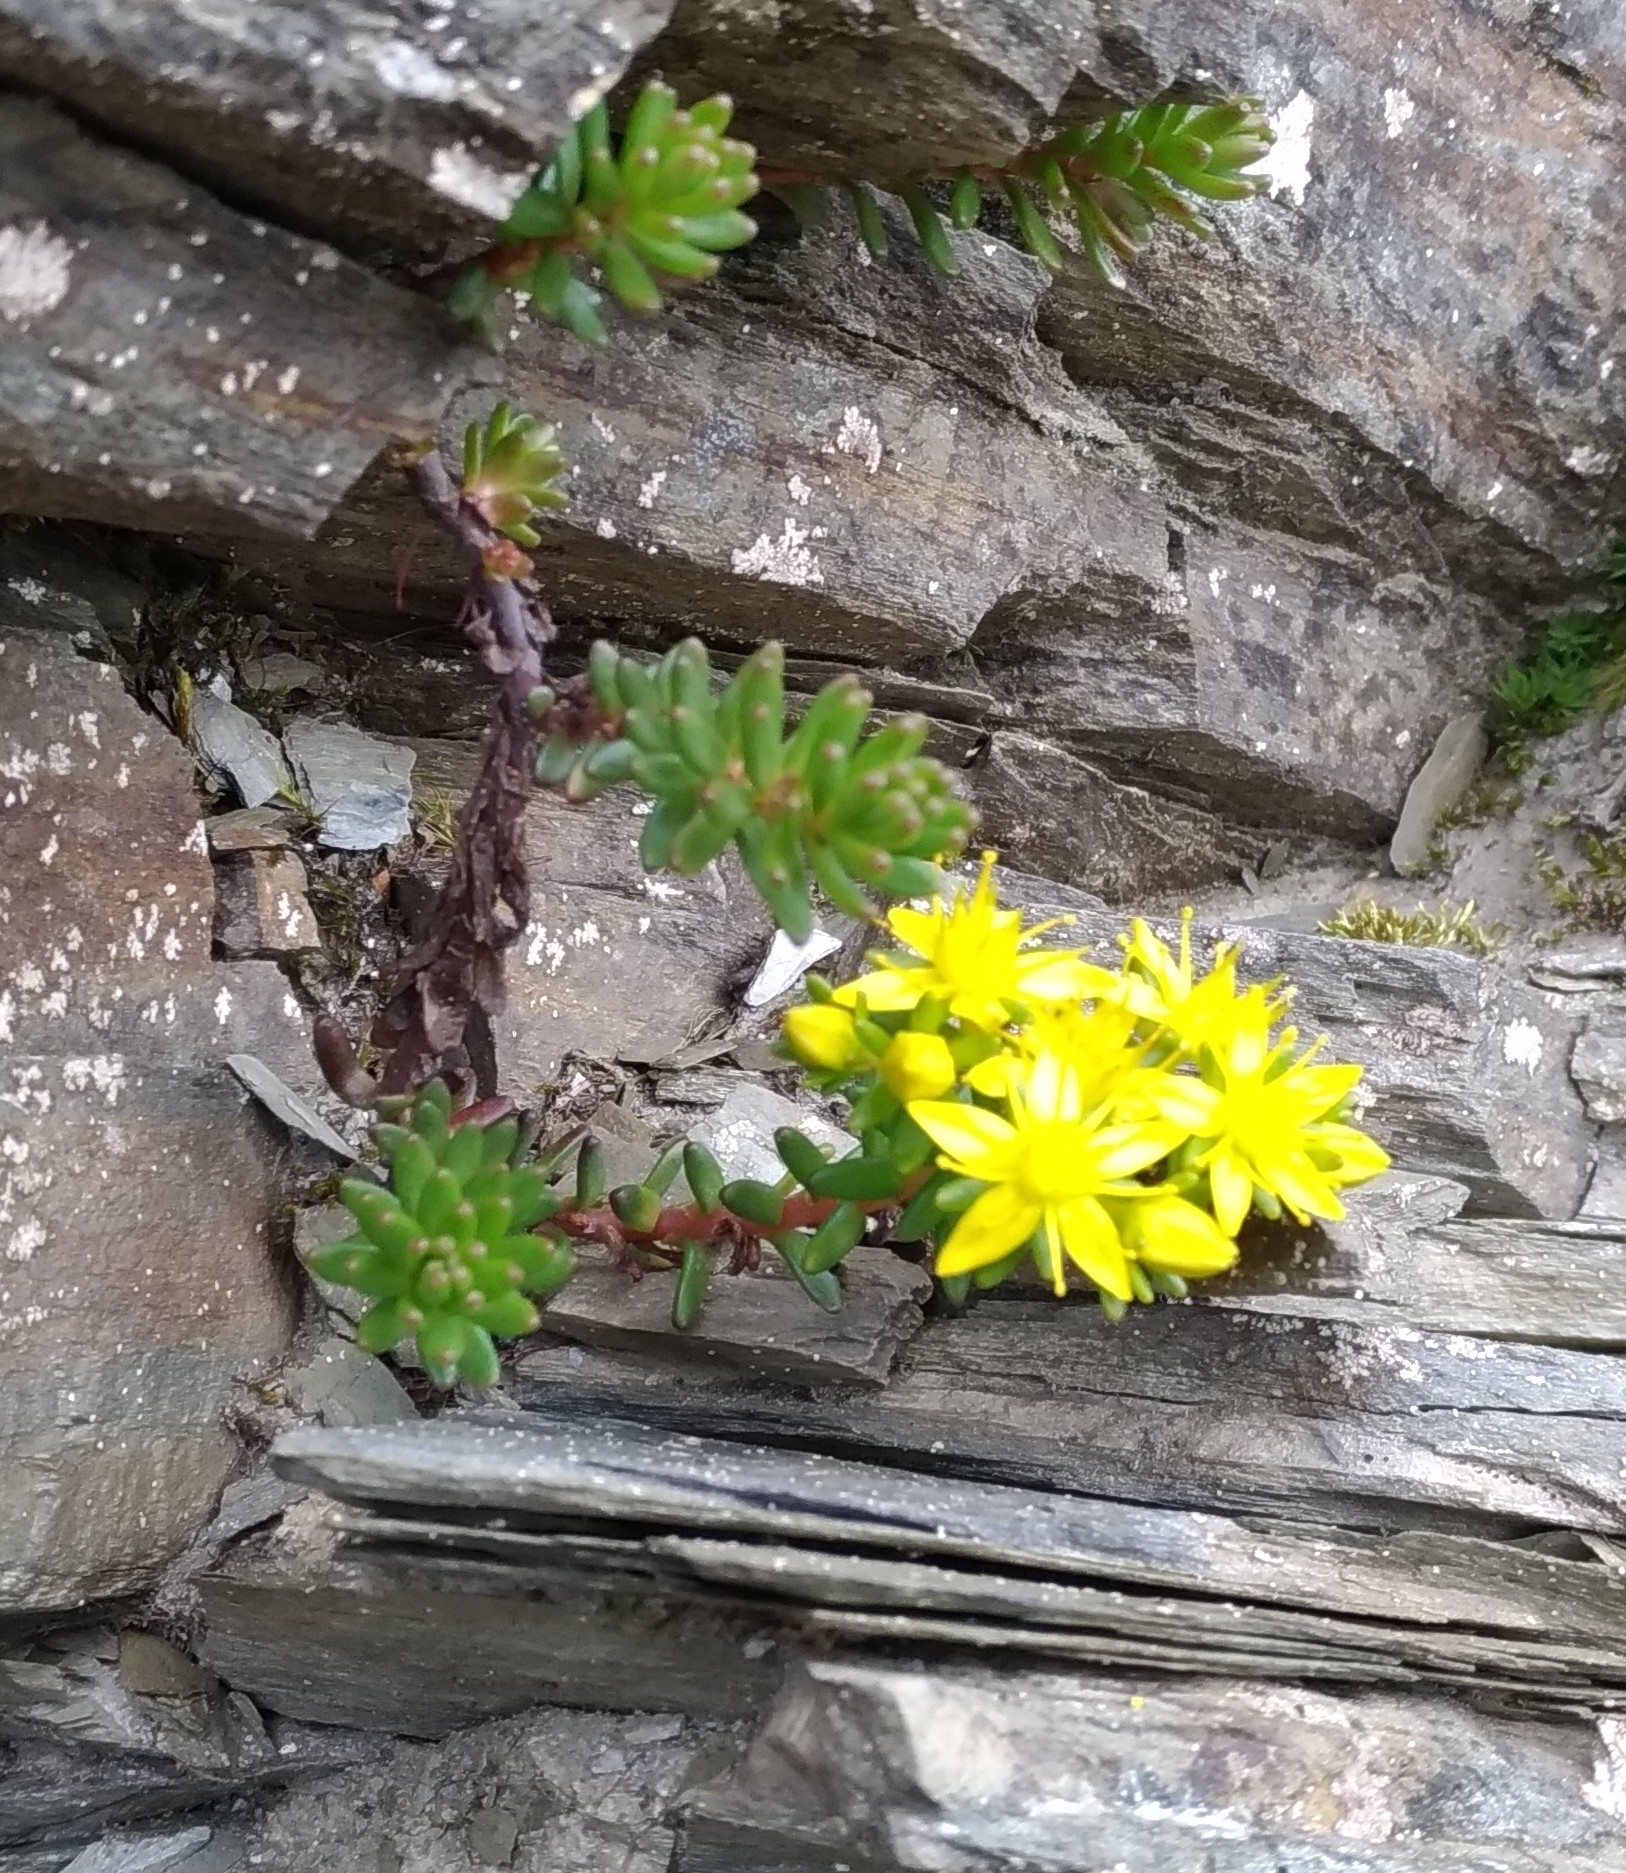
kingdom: Plantae
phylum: Tracheophyta
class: Magnoliopsida
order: Saxifragales
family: Crassulaceae
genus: Sedum
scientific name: Sedum morrisonense
